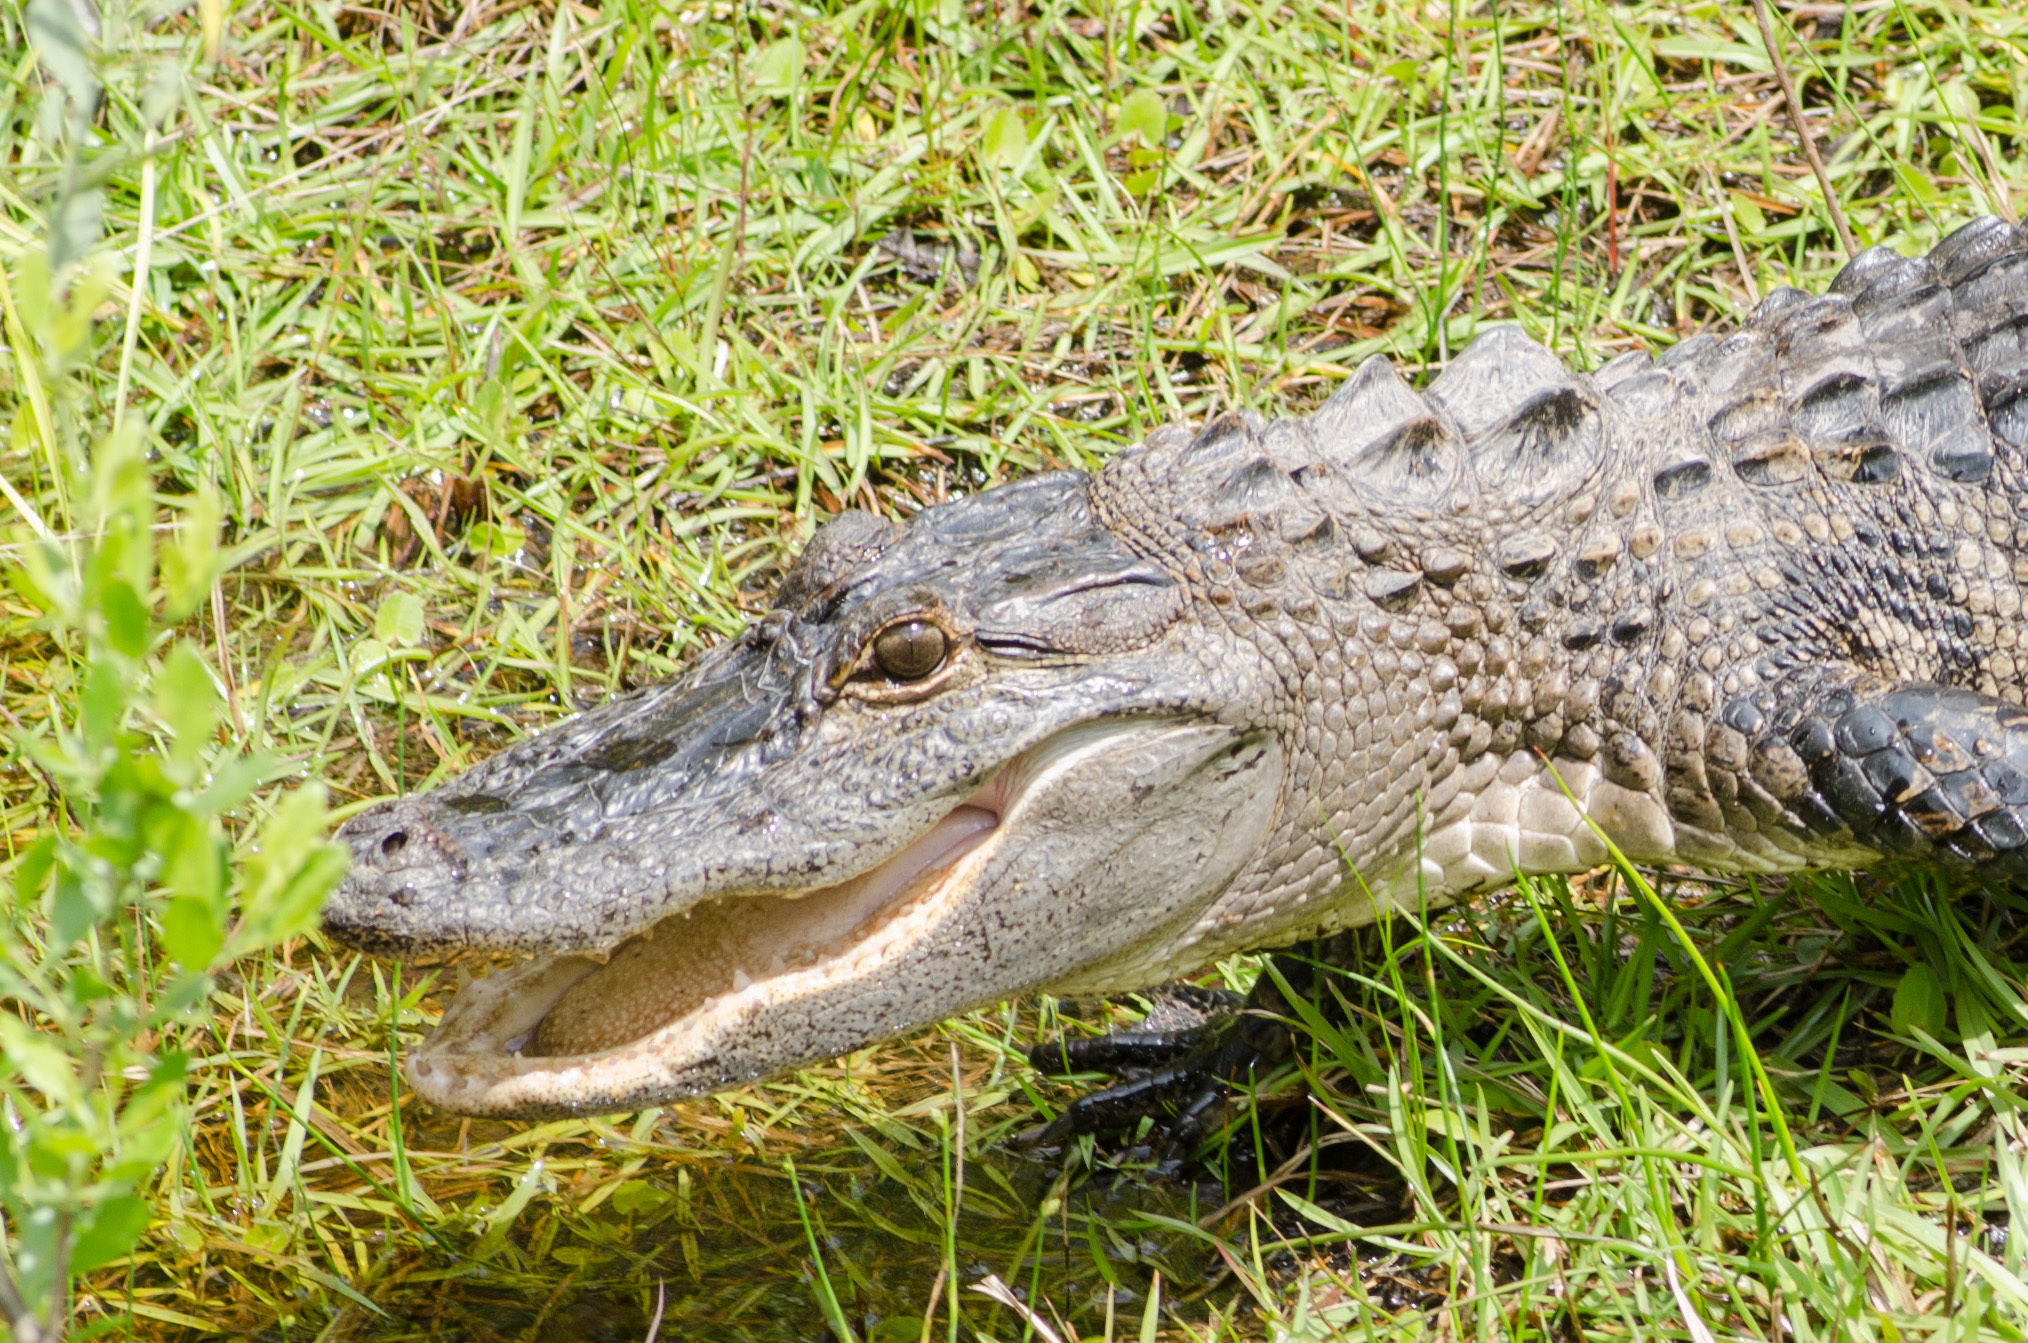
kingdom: Animalia
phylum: Chordata
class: Crocodylia
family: Alligatoridae
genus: Alligator
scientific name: Alligator mississippiensis
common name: American alligator
